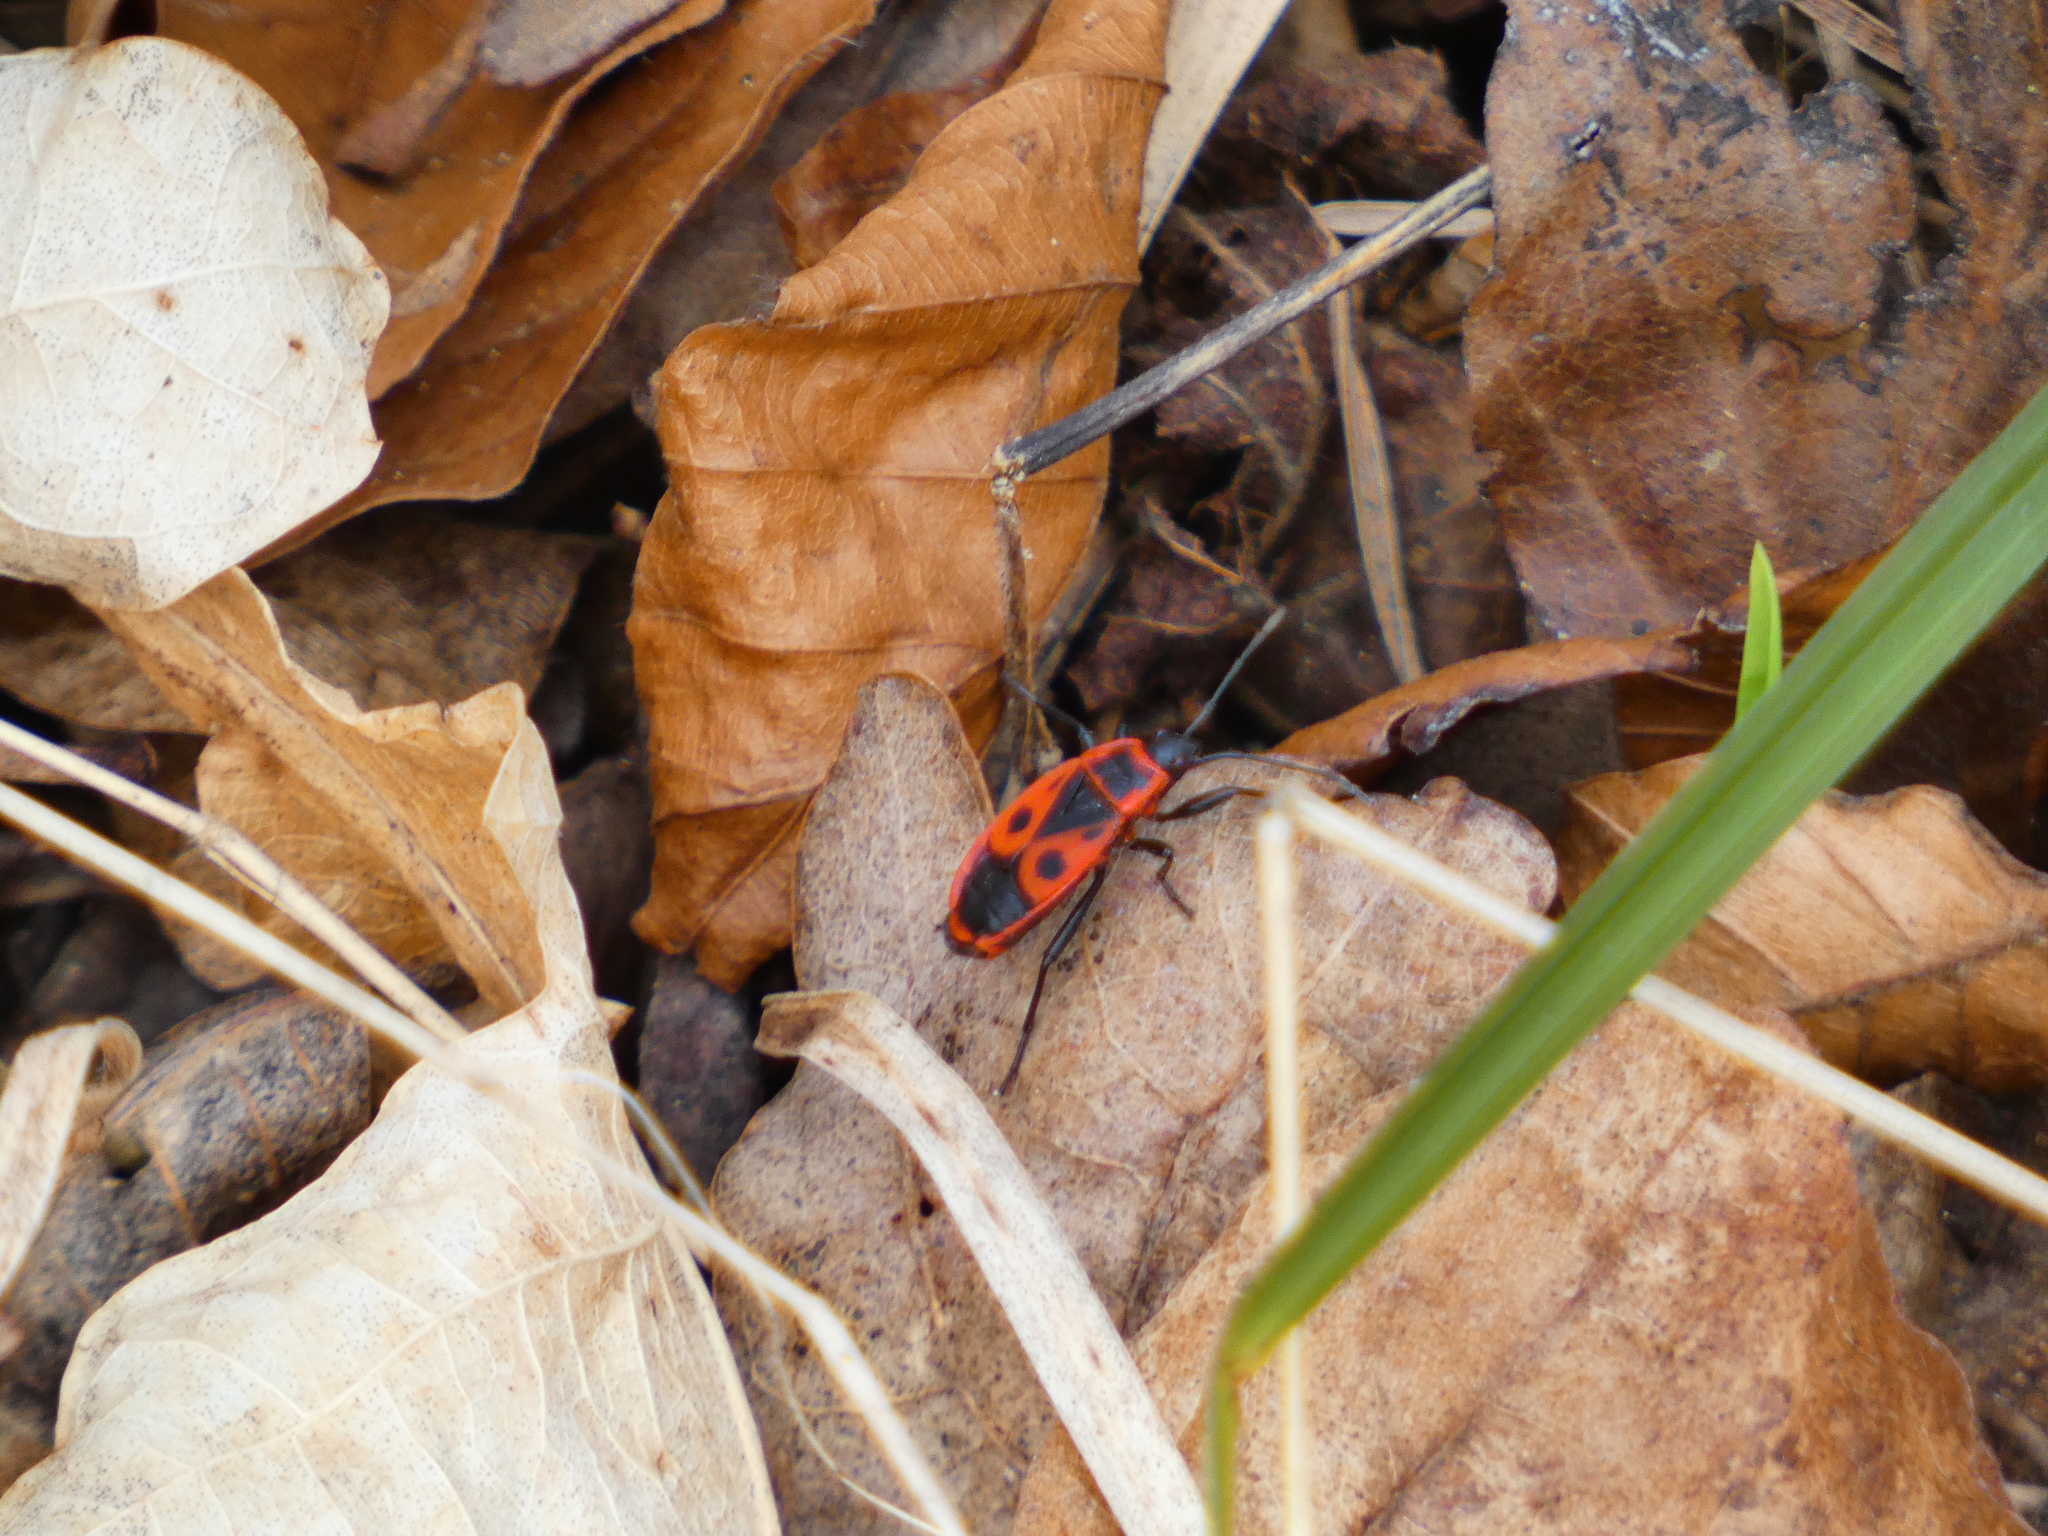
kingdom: Animalia
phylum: Arthropoda
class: Insecta
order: Hemiptera
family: Pyrrhocoridae
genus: Pyrrhocoris
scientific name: Pyrrhocoris apterus
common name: Firebug
